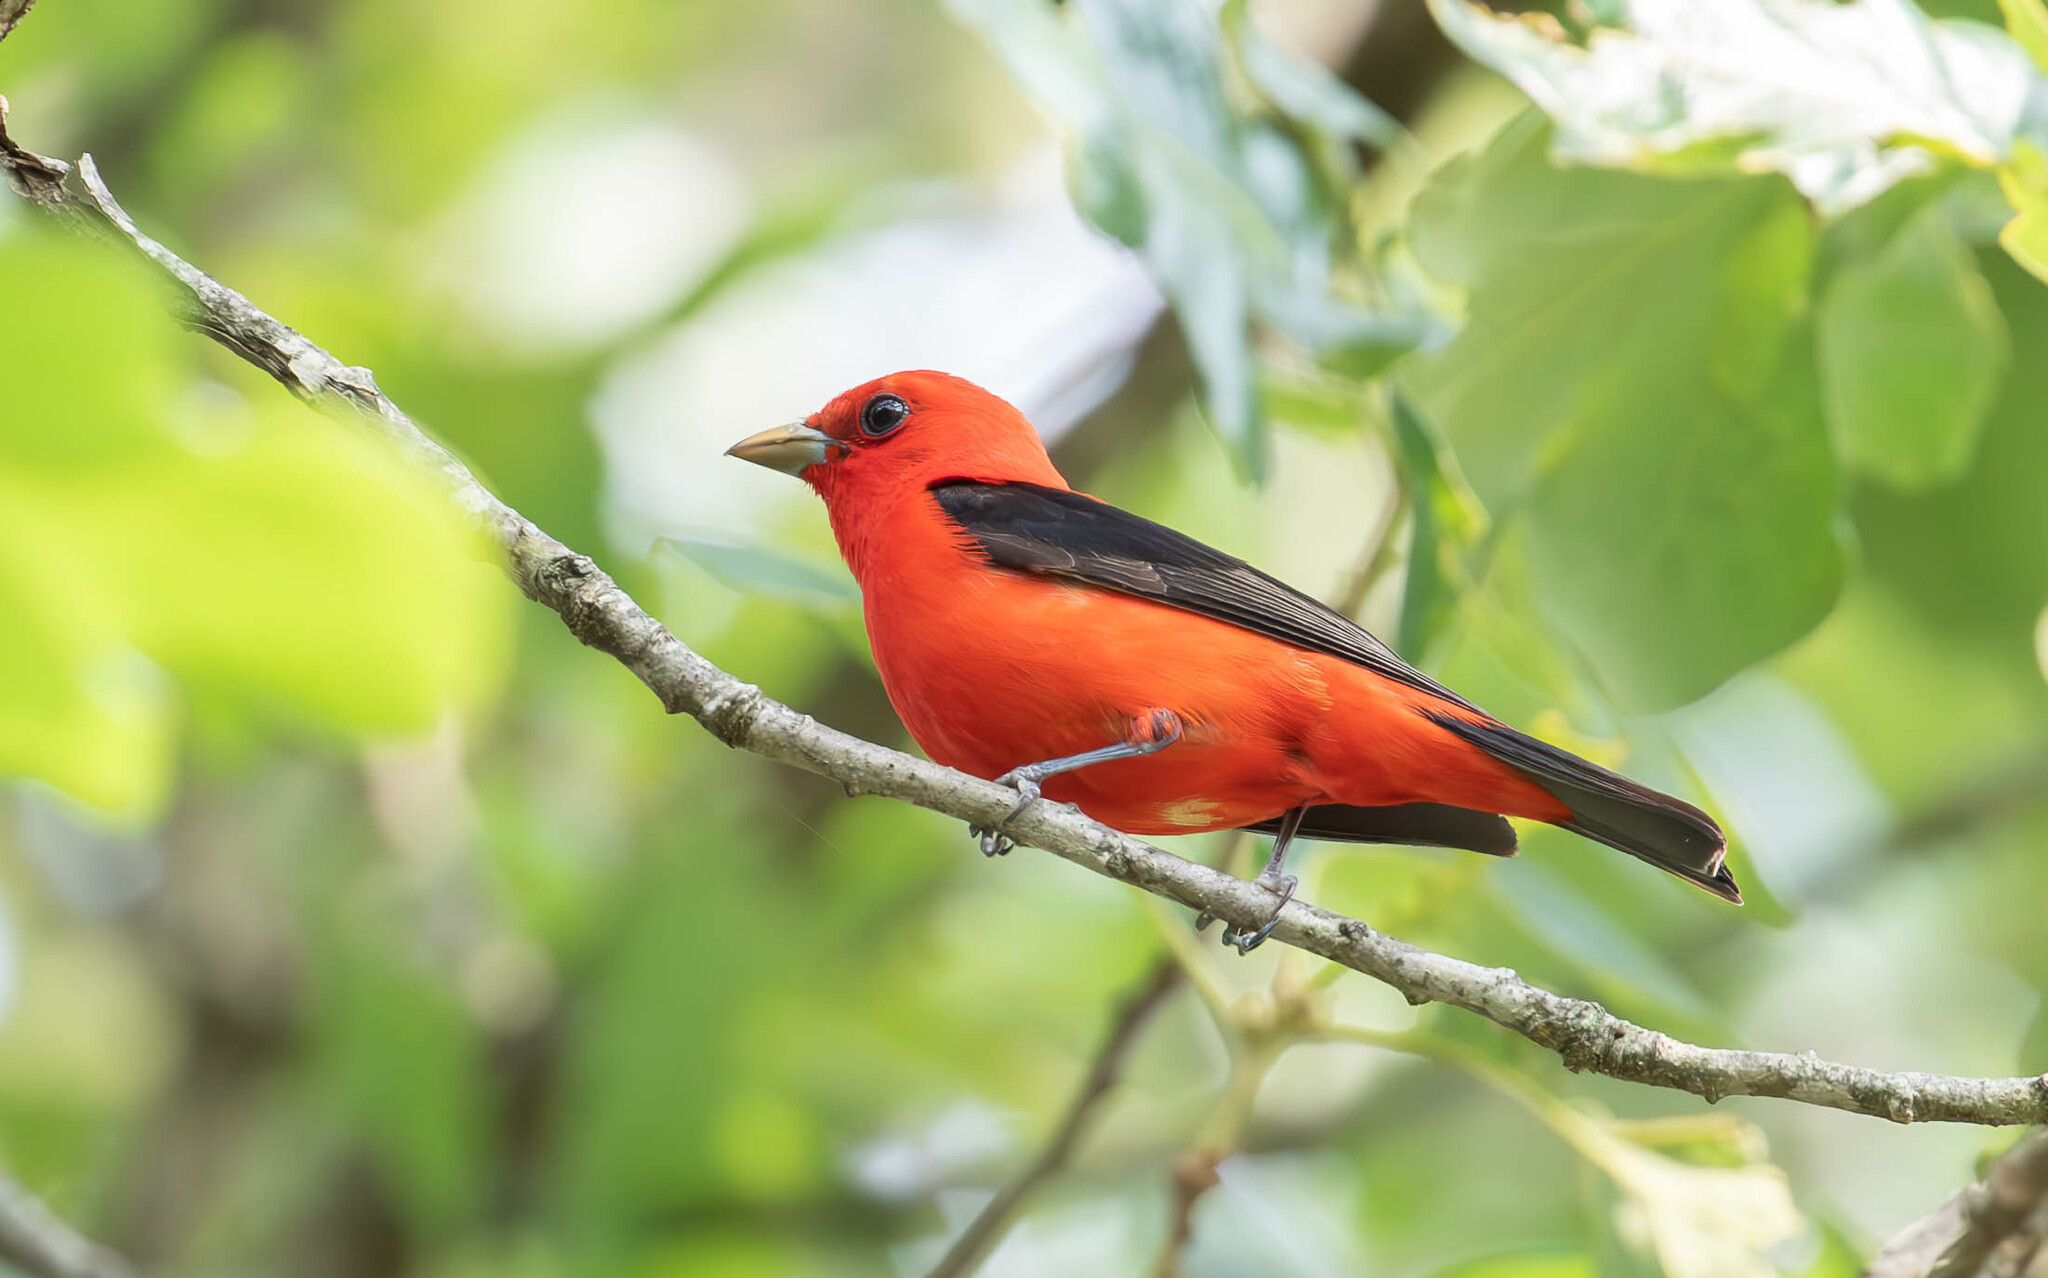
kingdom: Animalia
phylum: Chordata
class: Aves
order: Passeriformes
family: Cardinalidae
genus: Piranga
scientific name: Piranga olivacea
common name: Scarlet tanager
